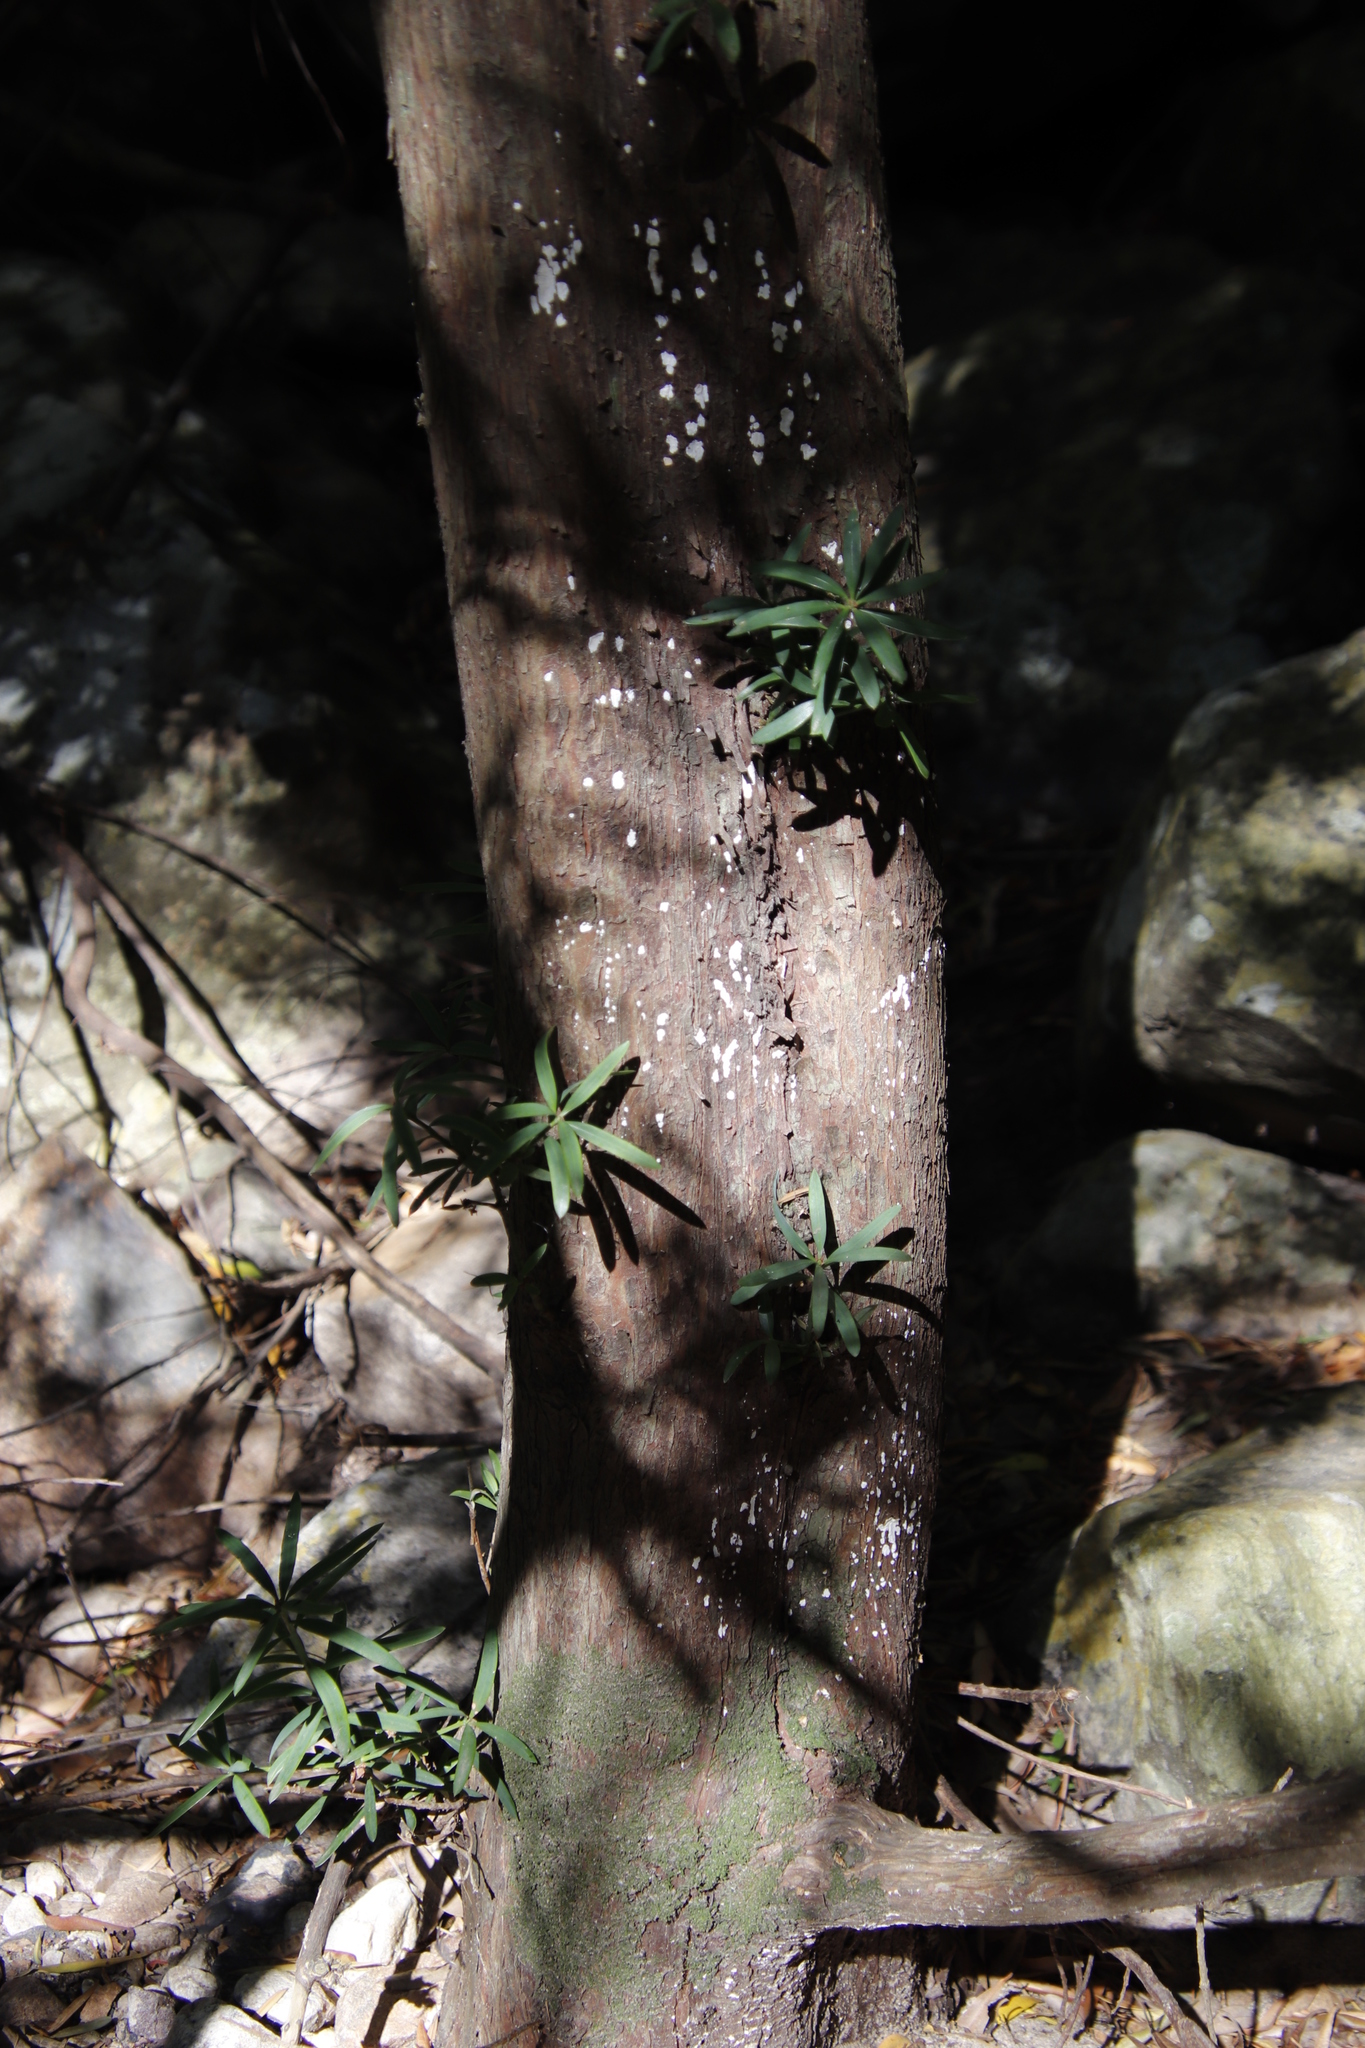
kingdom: Plantae
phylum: Tracheophyta
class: Pinopsida
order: Pinales
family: Podocarpaceae
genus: Podocarpus
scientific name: Podocarpus elongatus
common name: Breede river yellowwood
